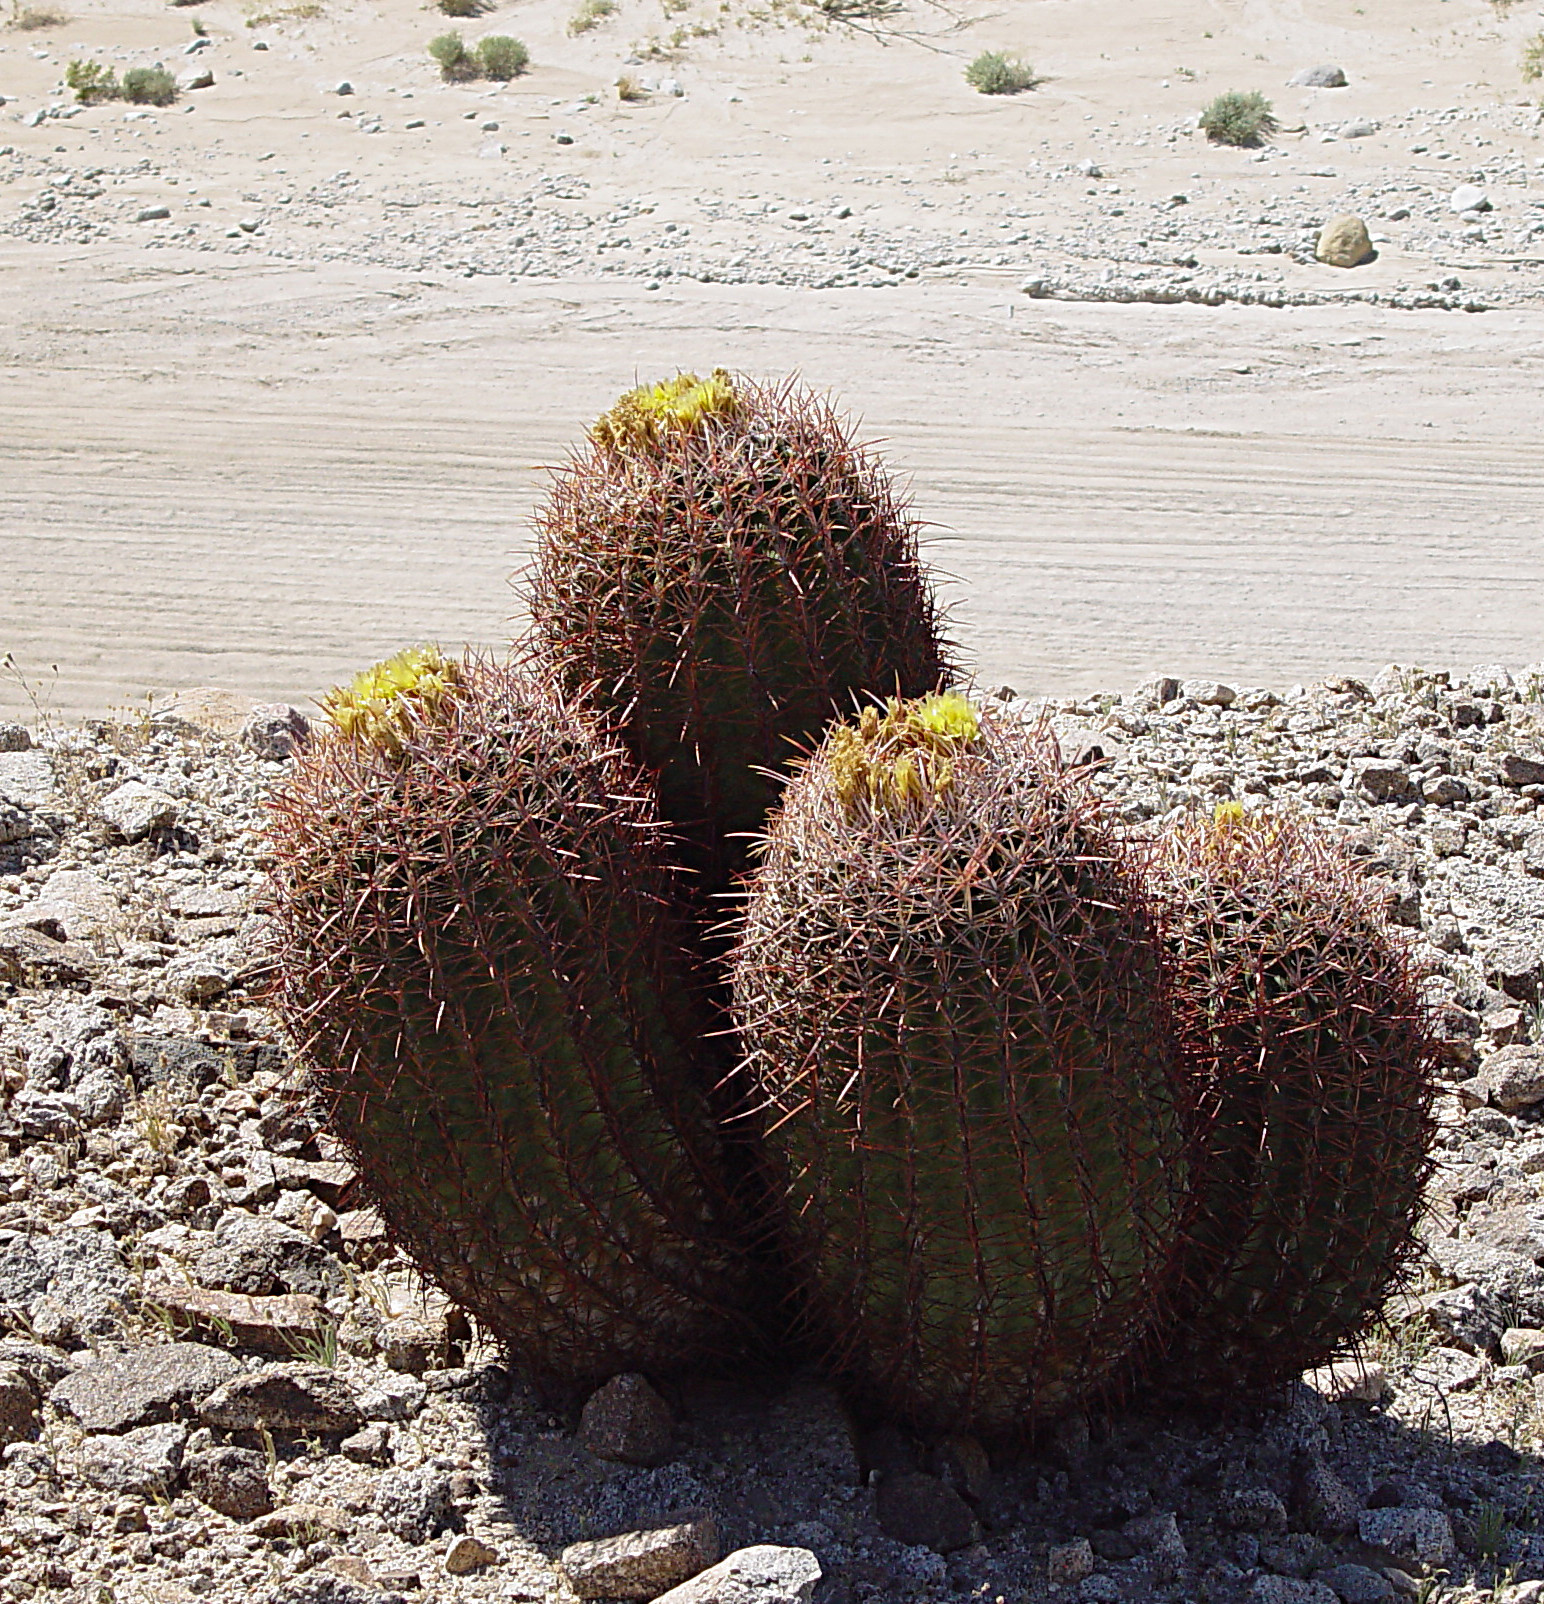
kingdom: Plantae
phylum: Tracheophyta
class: Magnoliopsida
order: Caryophyllales
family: Cactaceae
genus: Ferocactus
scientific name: Ferocactus cylindraceus
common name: California barrel cactus
